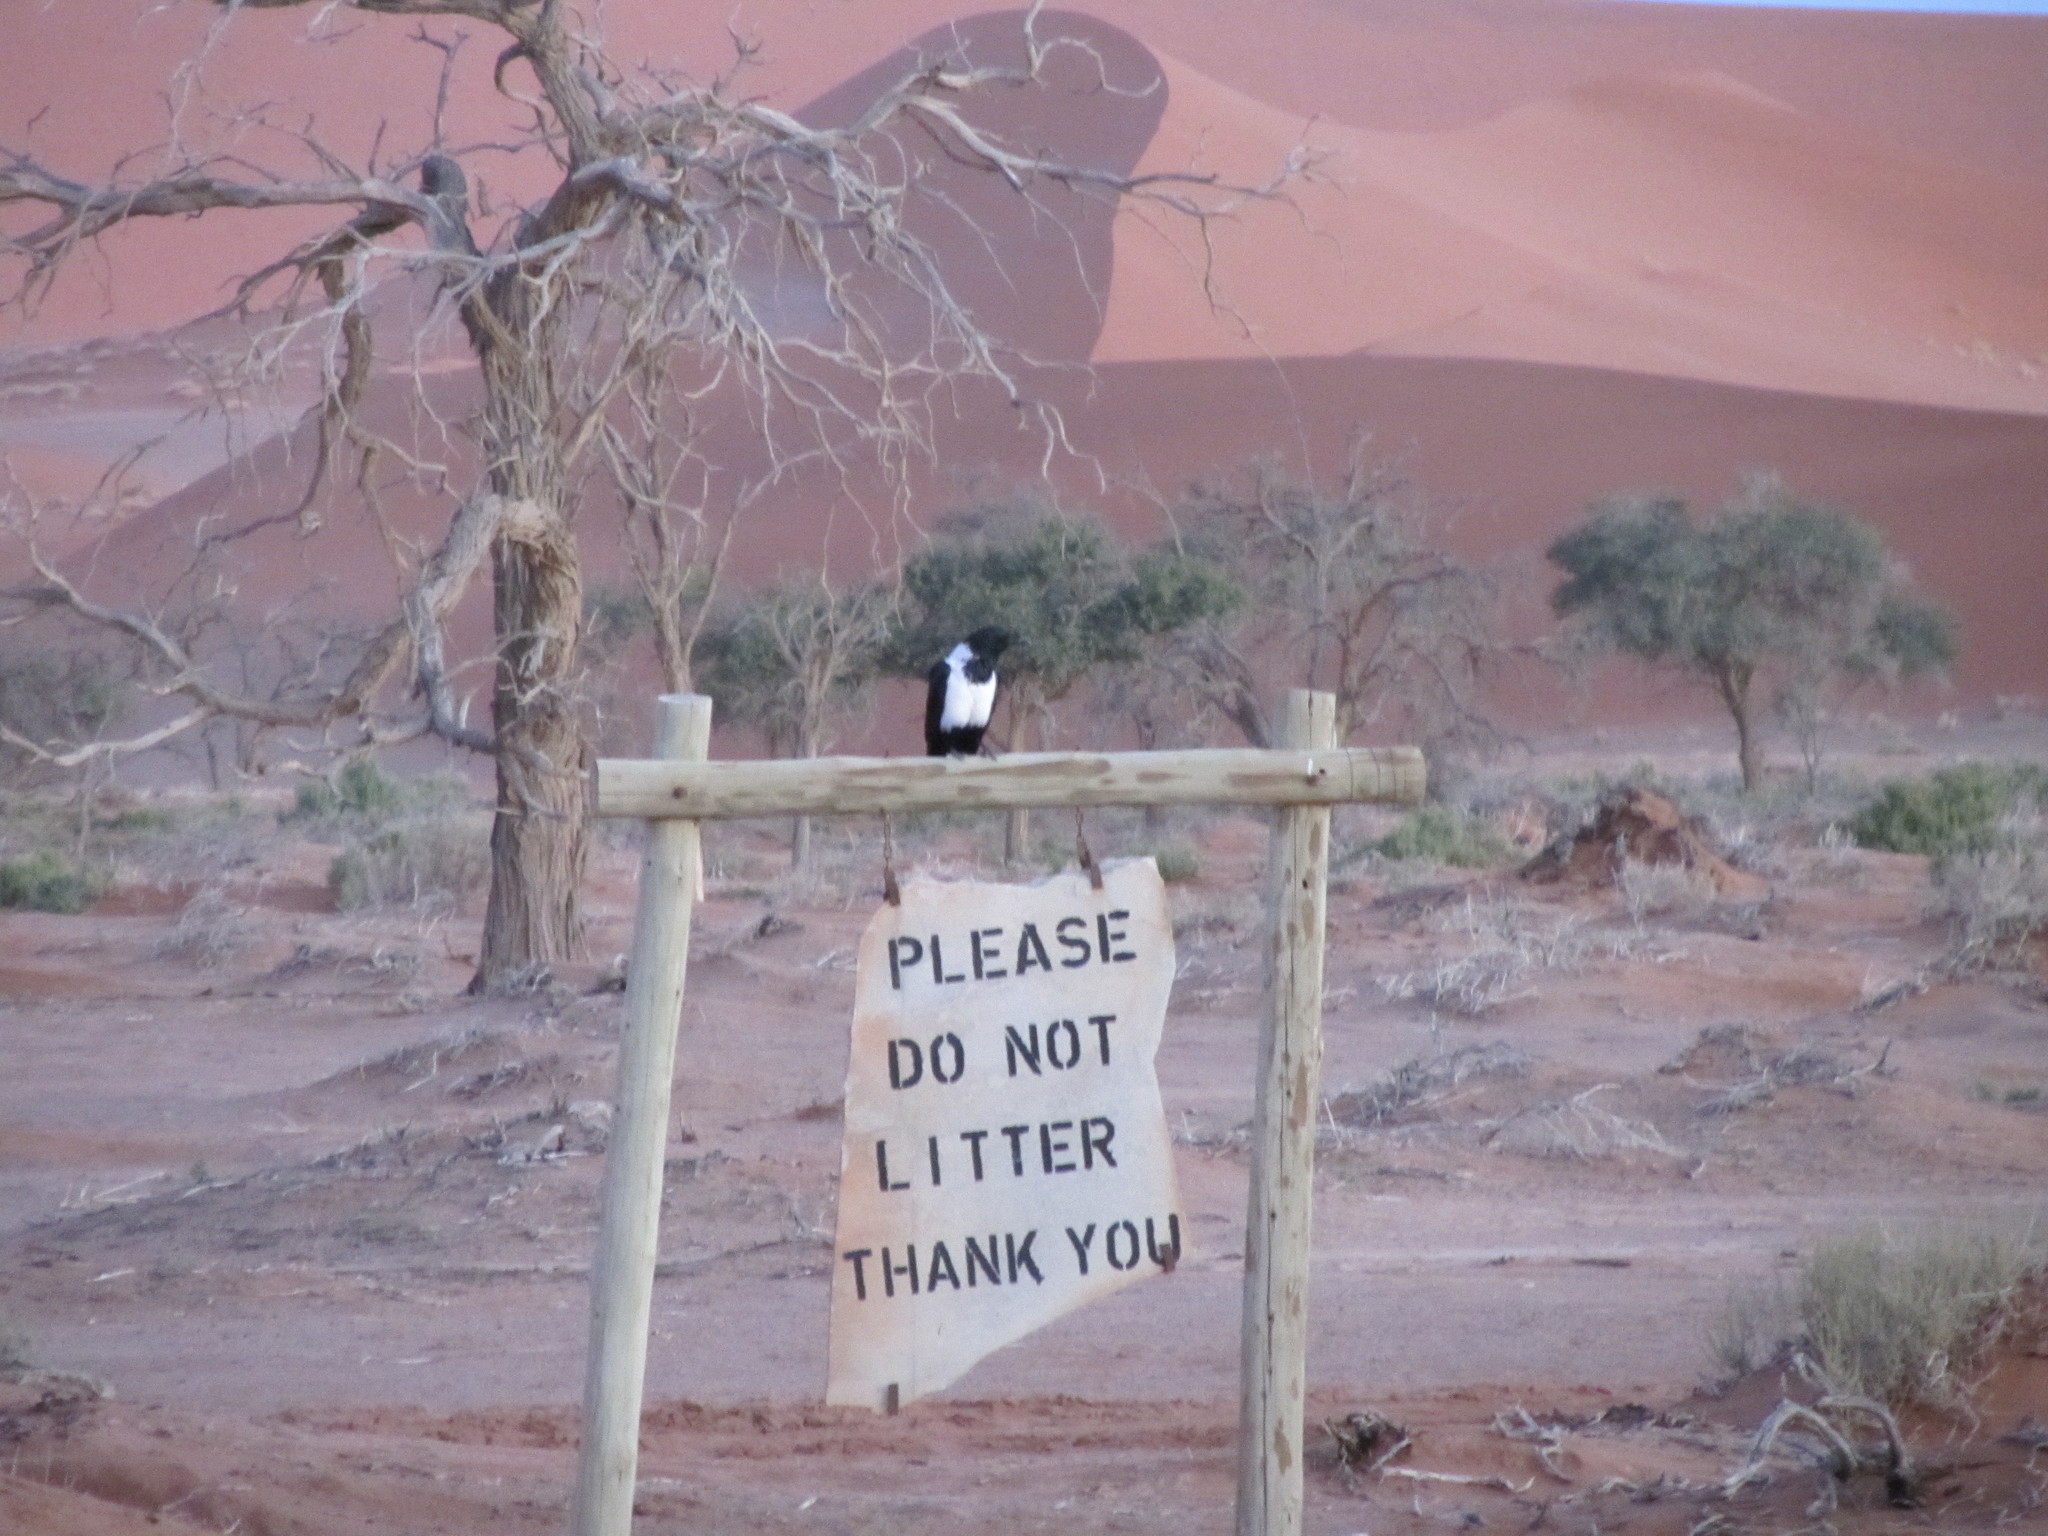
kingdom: Animalia
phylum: Chordata
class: Aves
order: Passeriformes
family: Corvidae
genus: Corvus
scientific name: Corvus albus
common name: Pied crow
